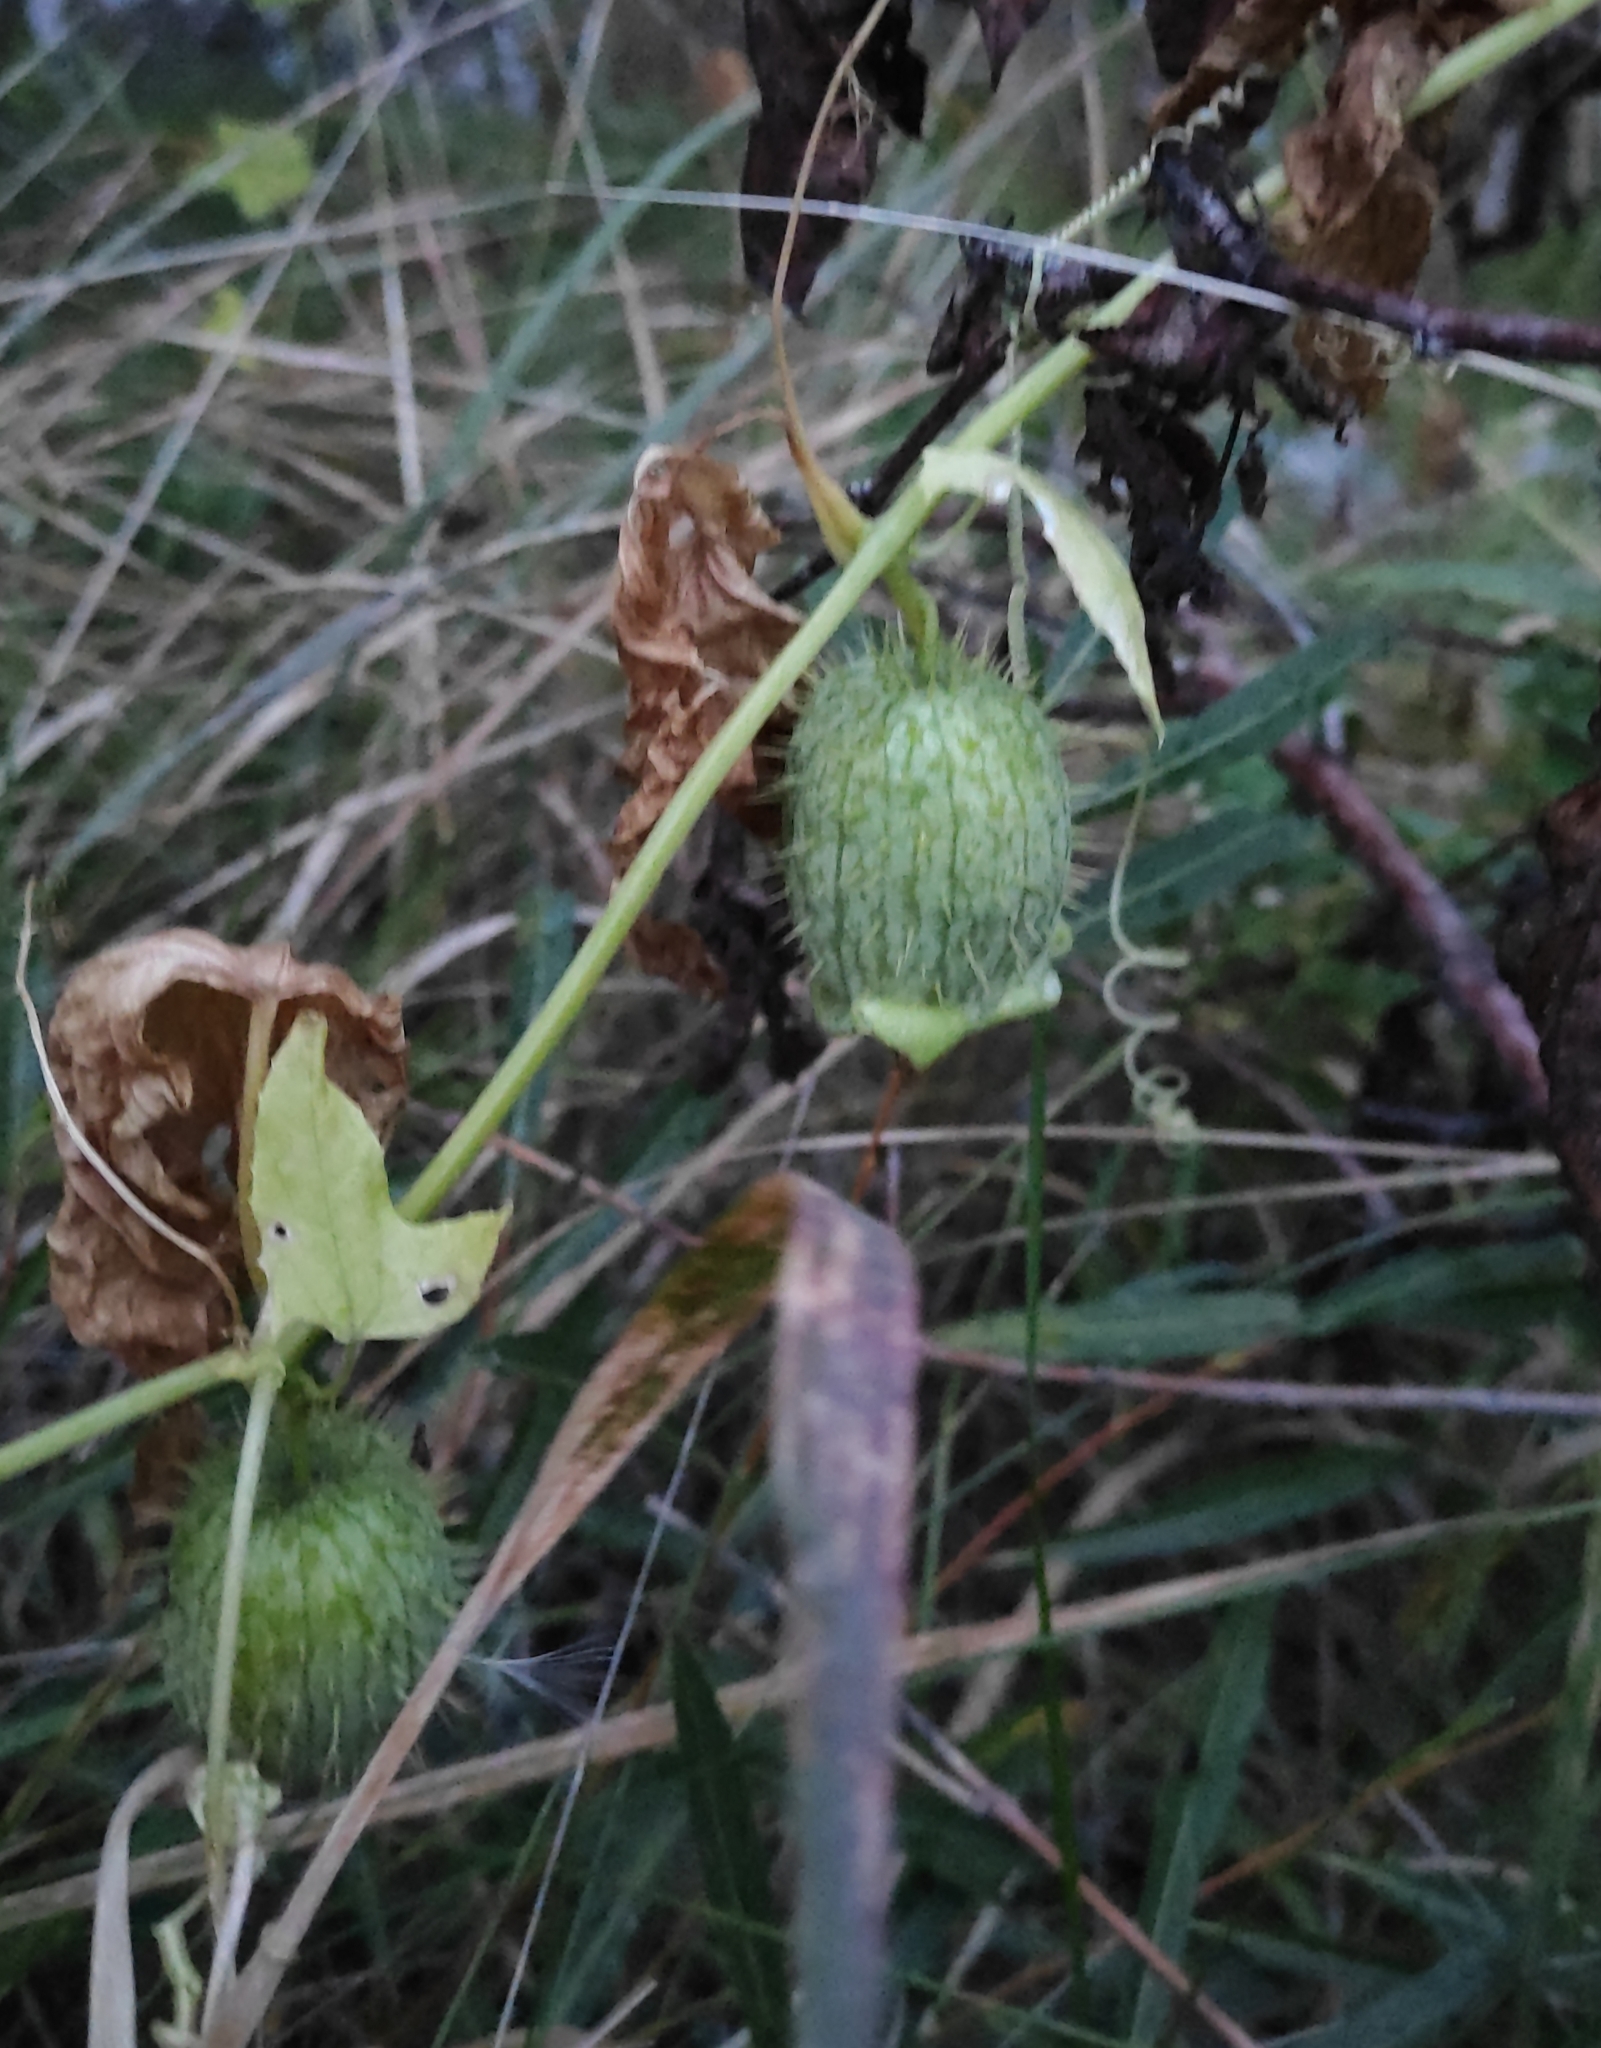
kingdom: Plantae
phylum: Tracheophyta
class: Magnoliopsida
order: Cucurbitales
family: Cucurbitaceae
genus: Echinocystis
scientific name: Echinocystis lobata
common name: Wild cucumber
